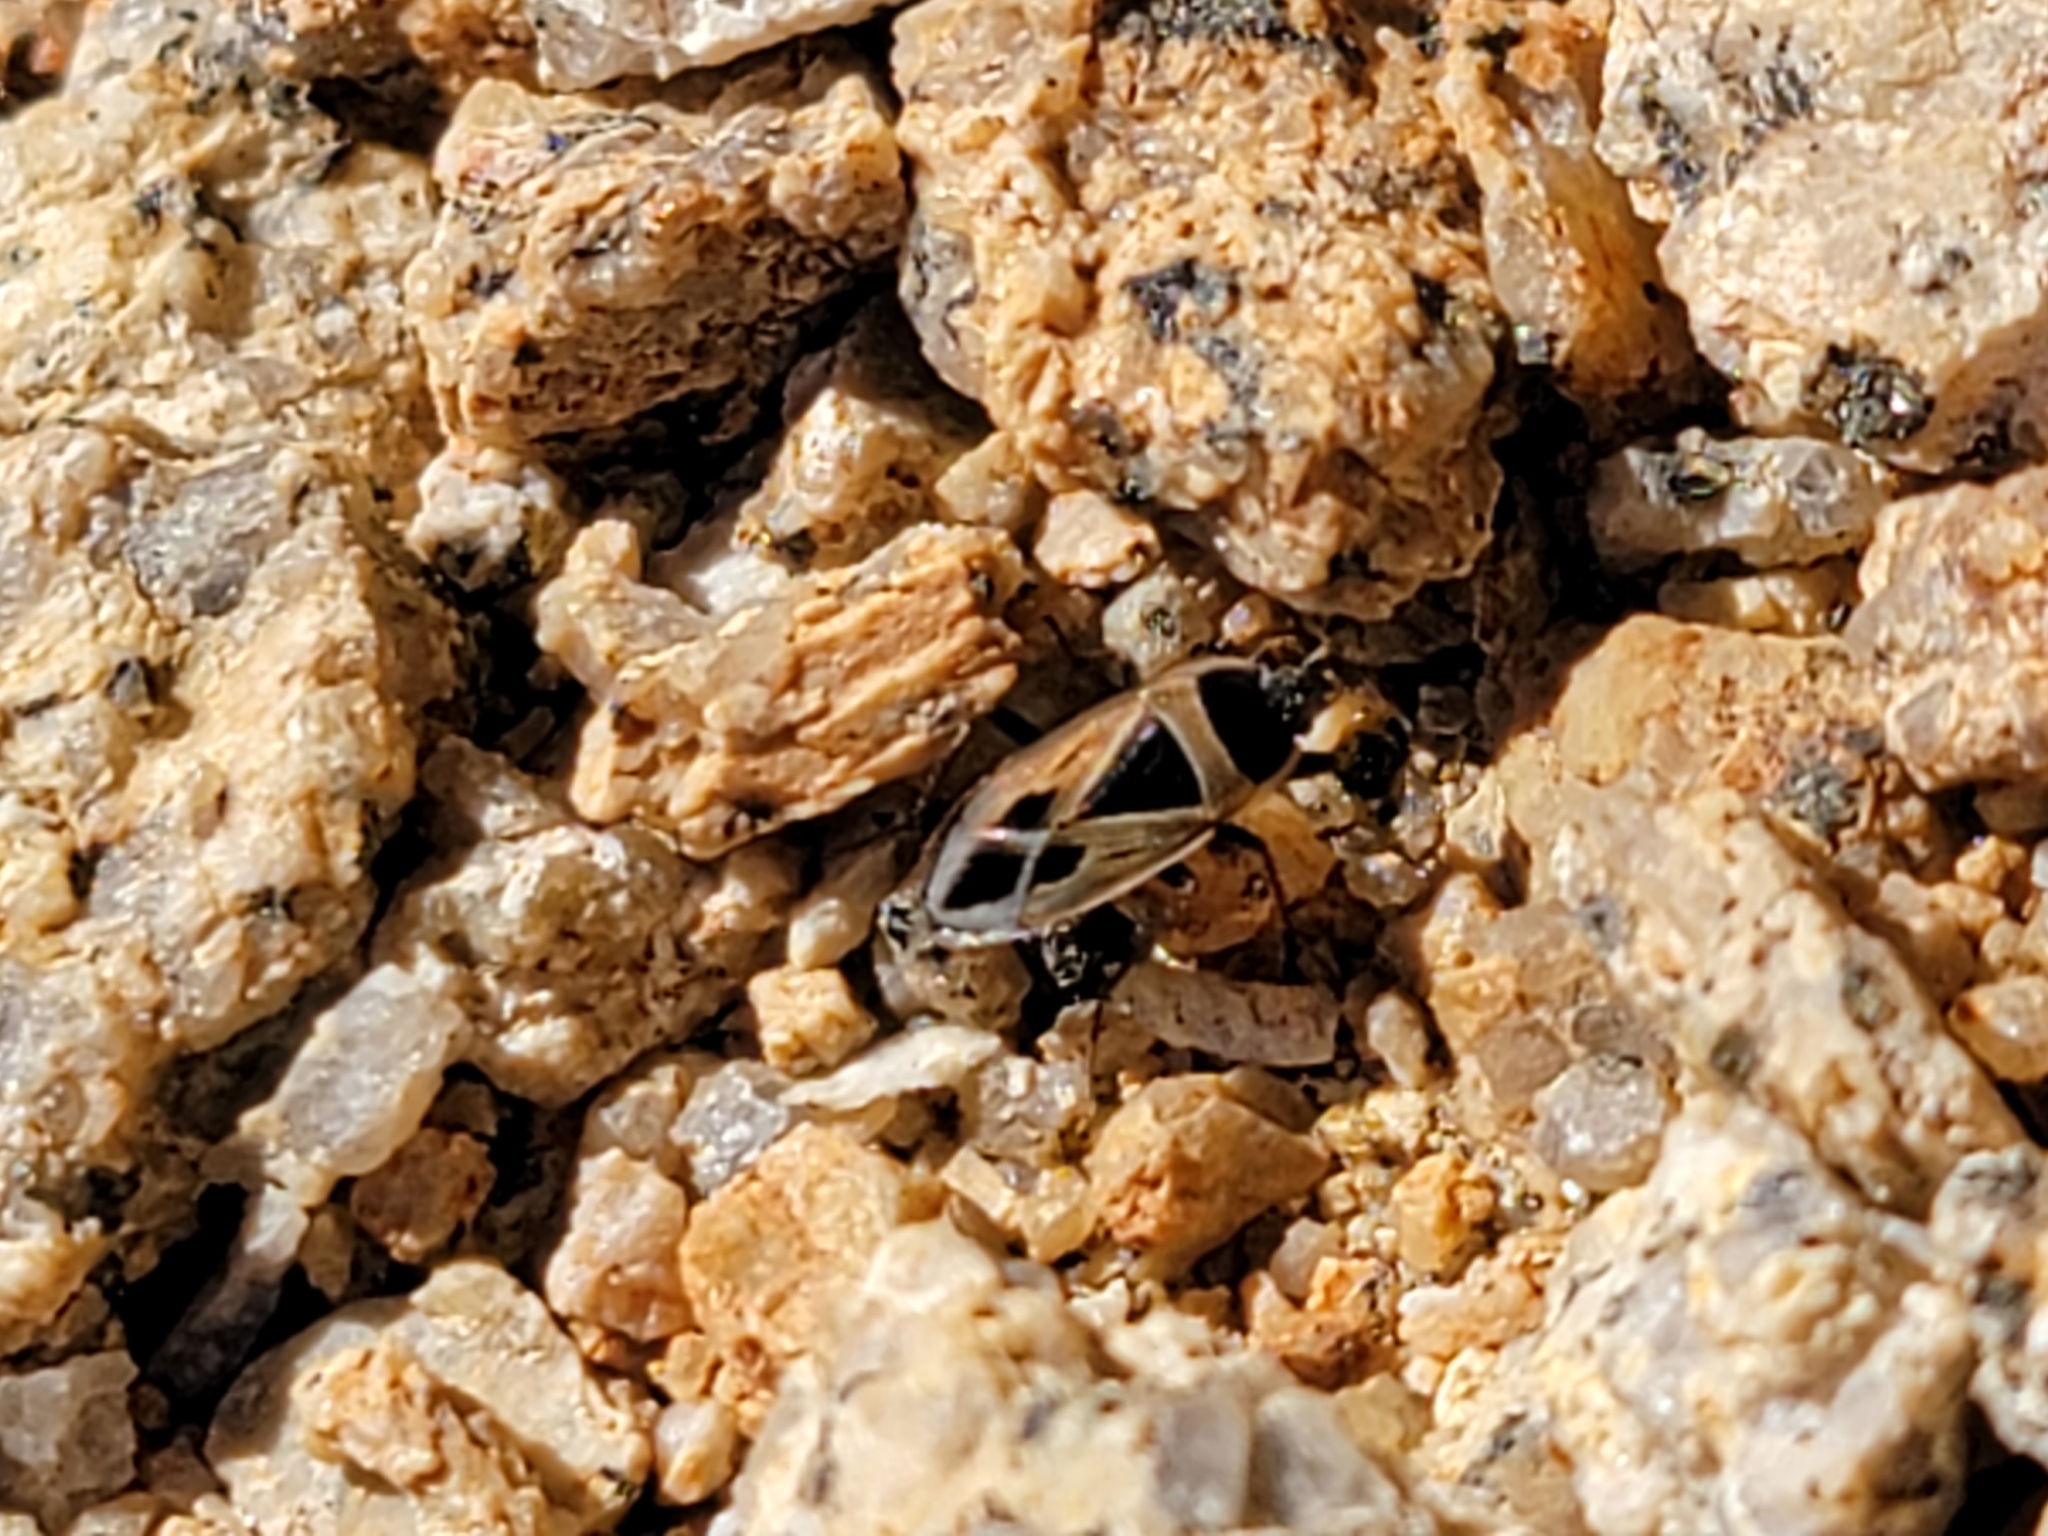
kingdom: Animalia
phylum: Arthropoda
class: Insecta
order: Hemiptera
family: Rhyparochromidae
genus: Xanthochilus
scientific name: Xanthochilus saturnius
